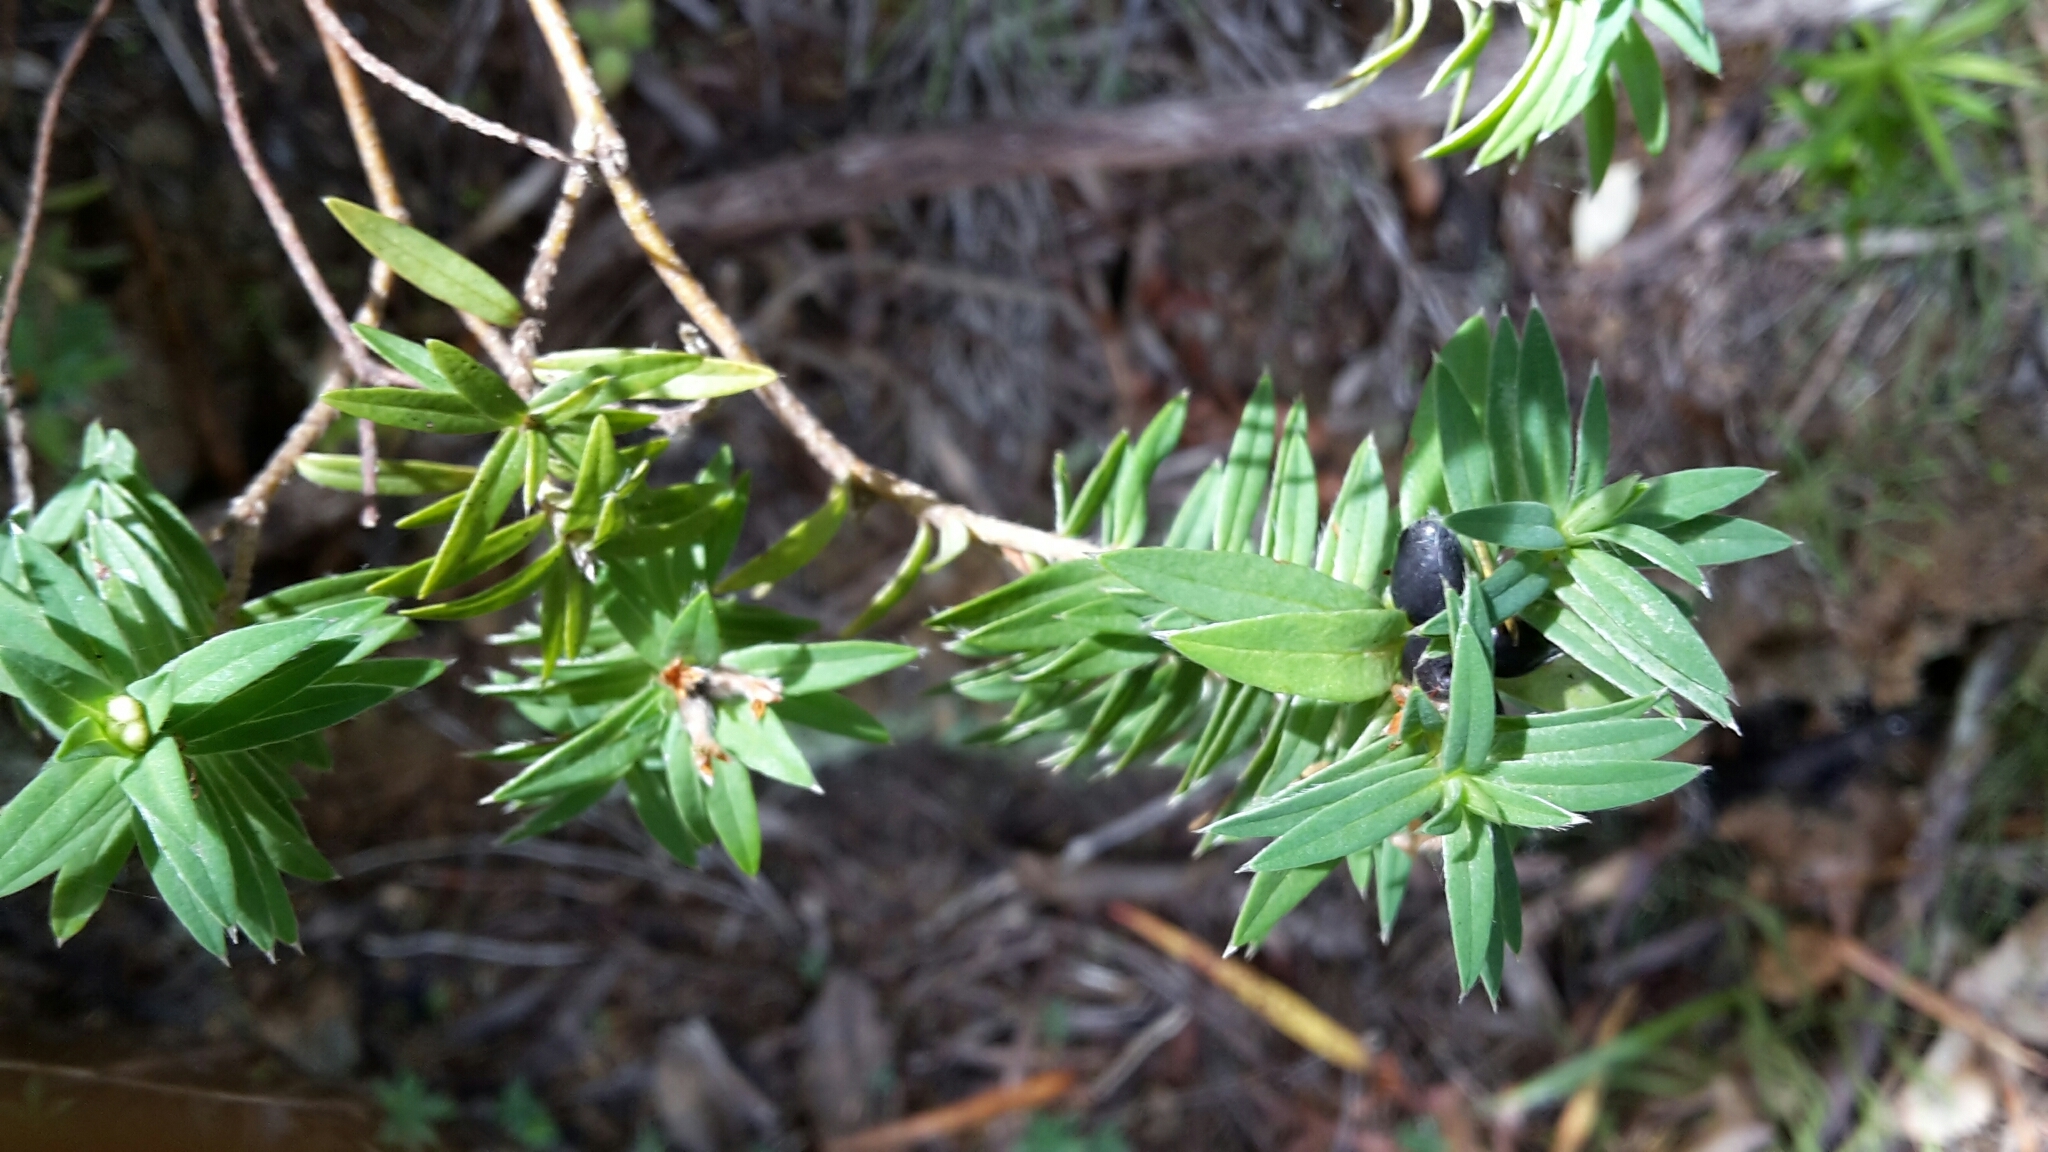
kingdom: Plantae
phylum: Tracheophyta
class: Magnoliopsida
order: Malvales
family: Thymelaeaceae
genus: Pimelea
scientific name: Pimelea tomentosa
